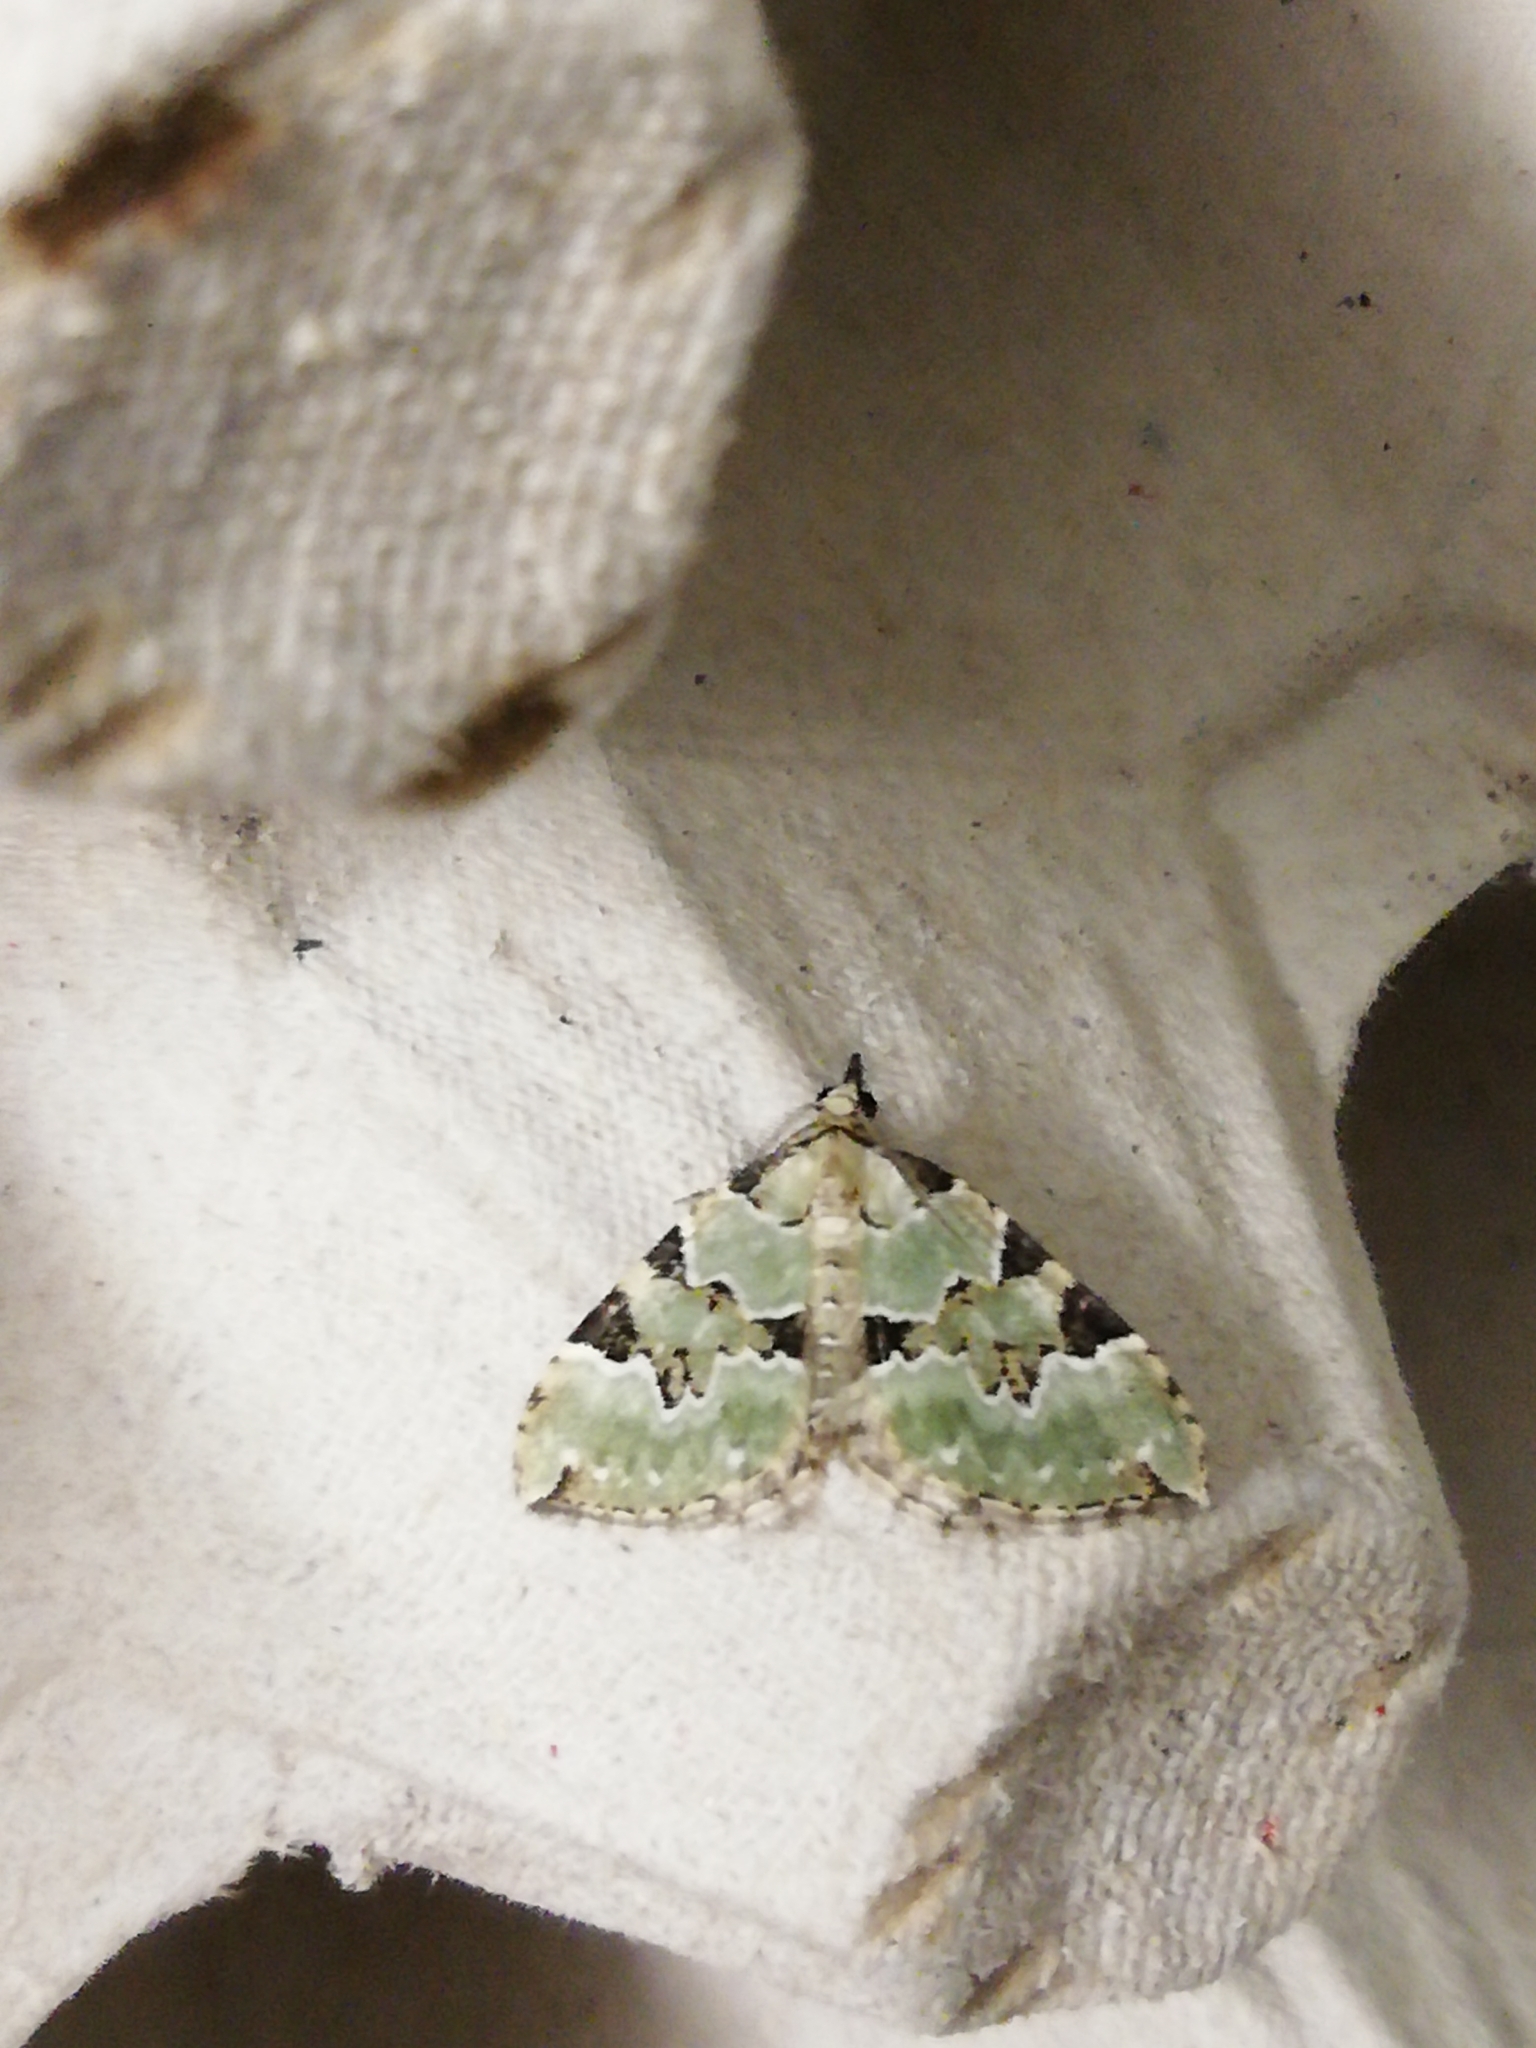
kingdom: Animalia
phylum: Arthropoda
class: Insecta
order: Lepidoptera
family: Geometridae
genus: Colostygia
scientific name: Colostygia pectinataria
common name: Green carpet
